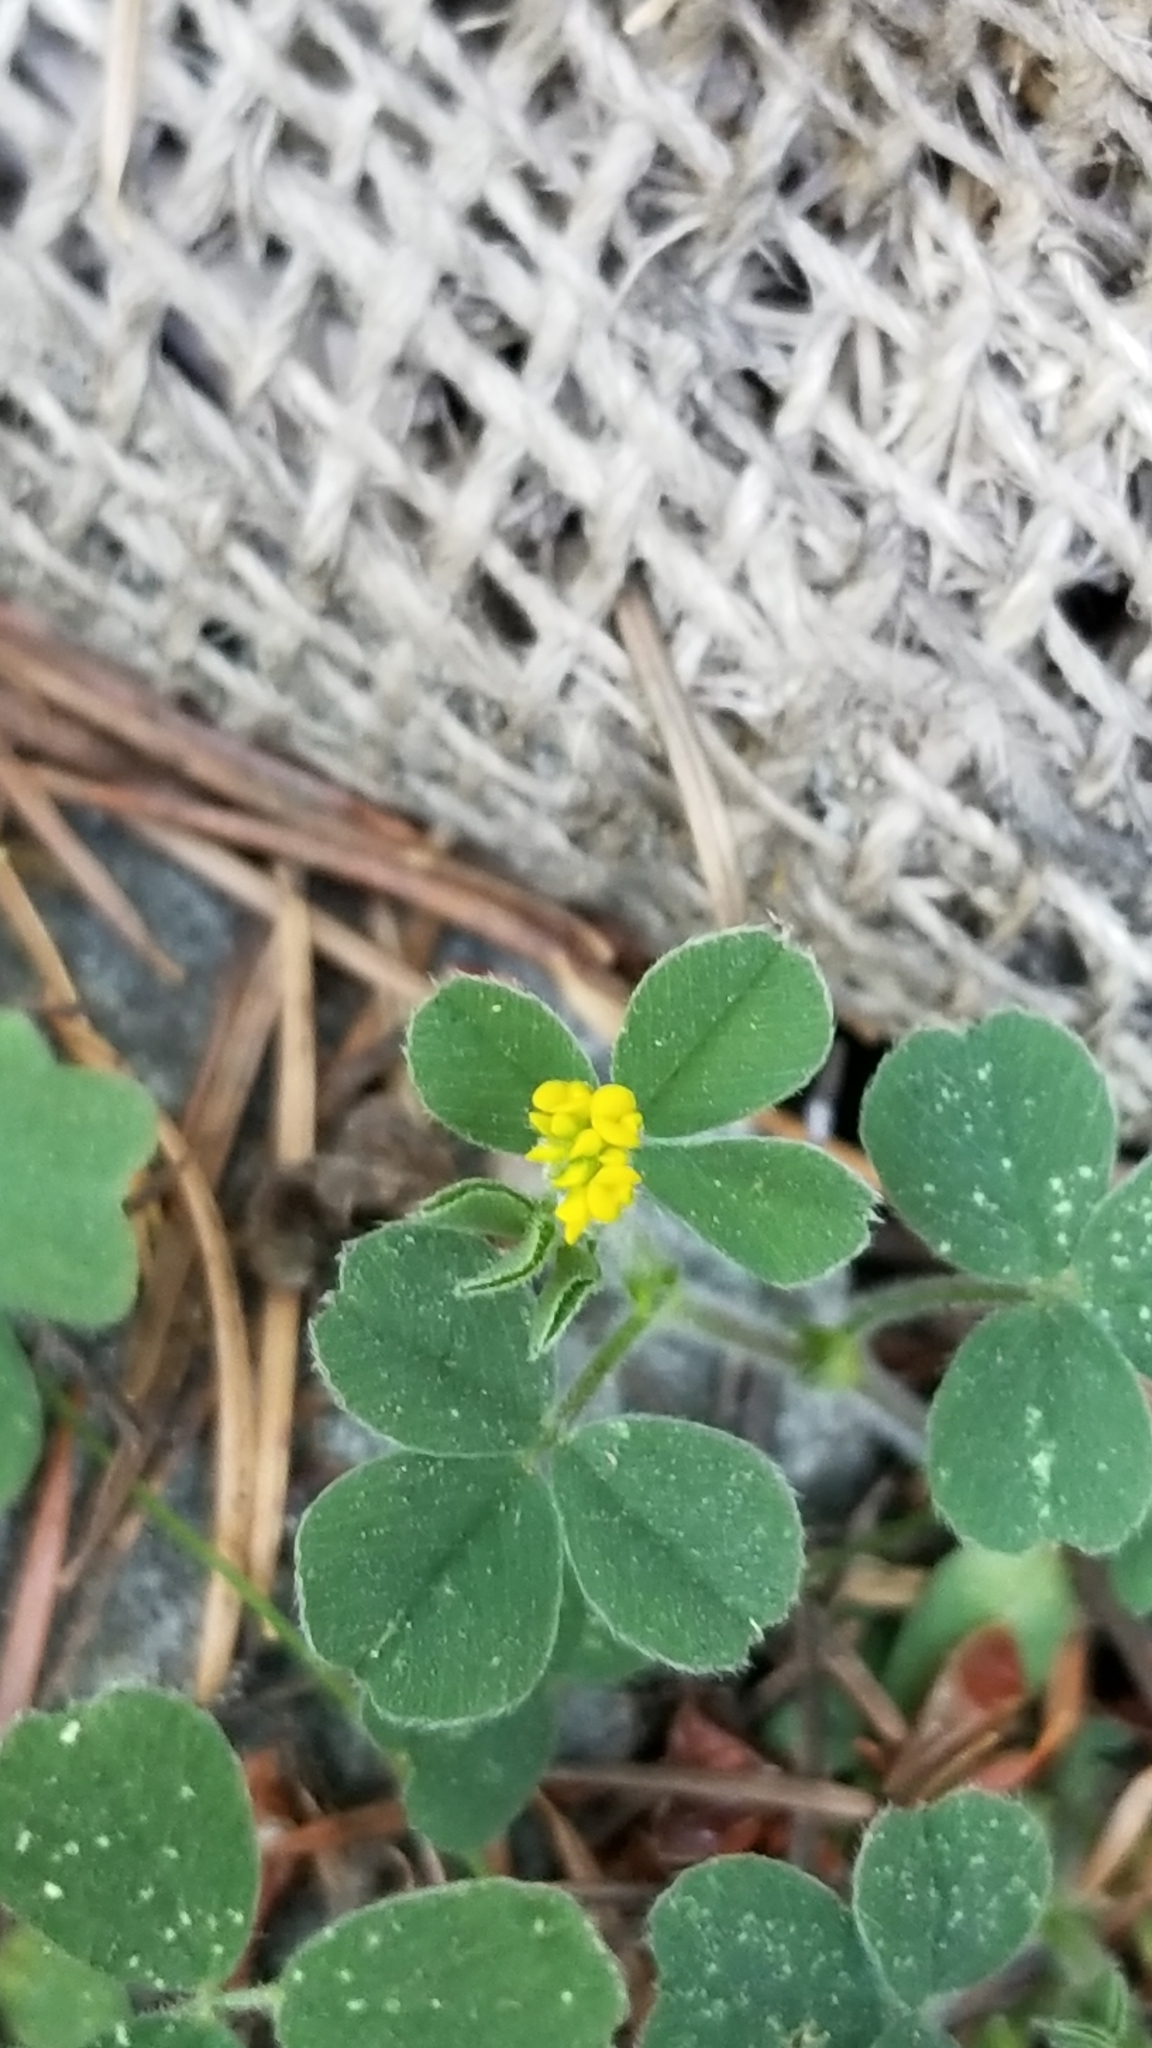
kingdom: Plantae
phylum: Tracheophyta
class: Magnoliopsida
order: Fabales
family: Fabaceae
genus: Medicago
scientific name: Medicago lupulina
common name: Black medick
